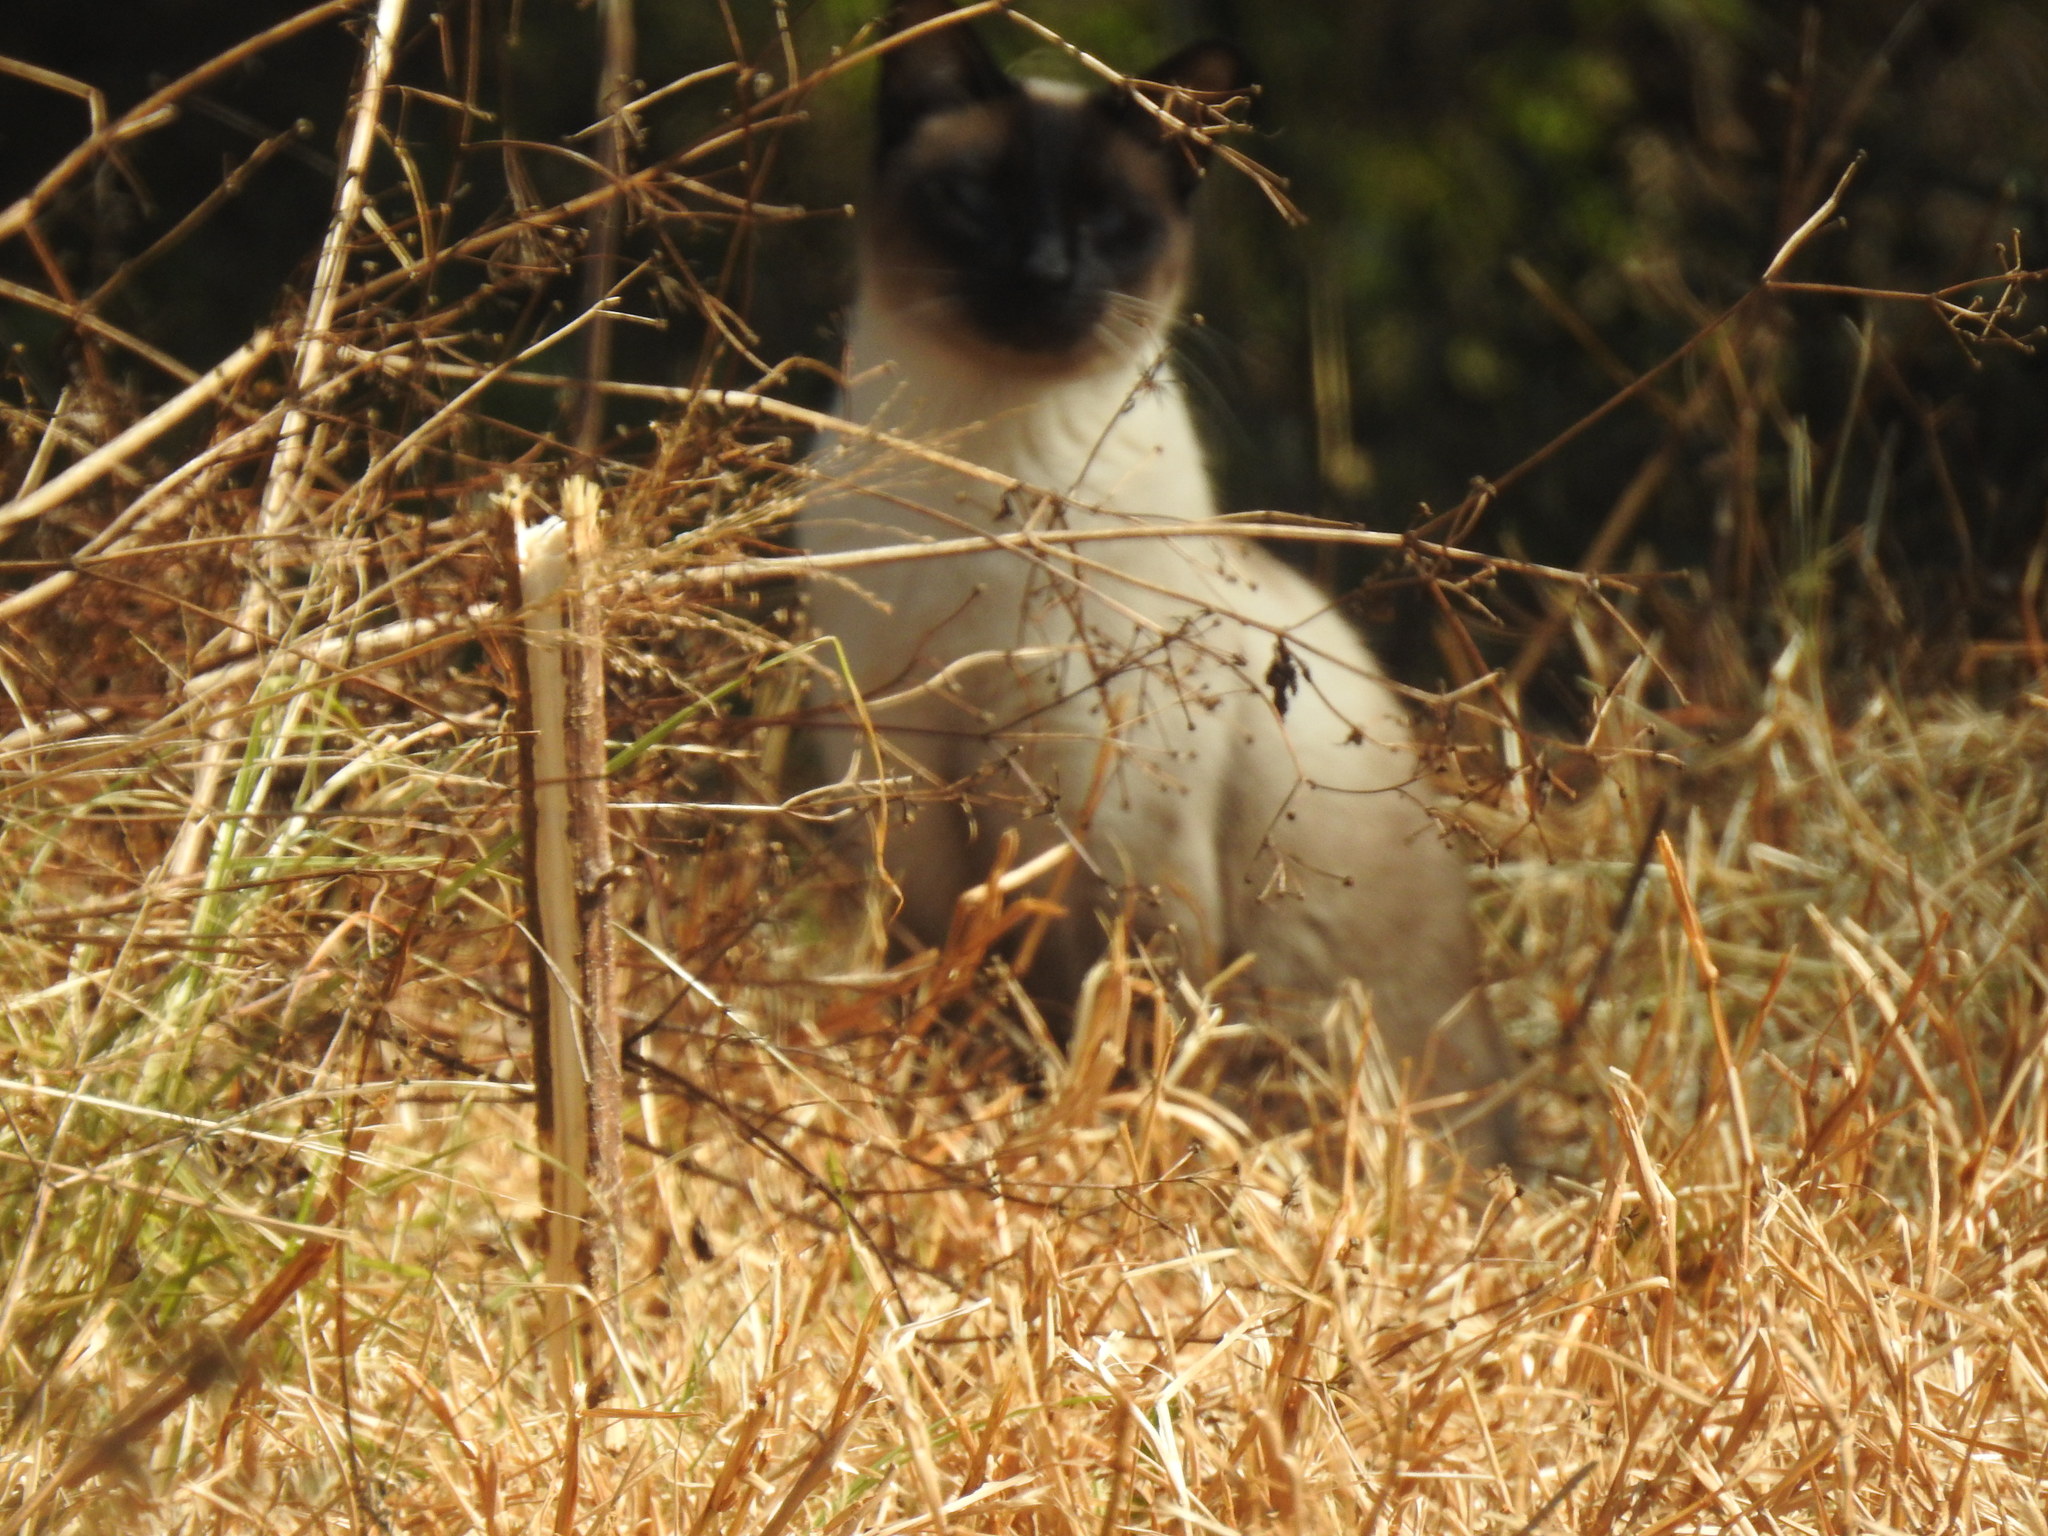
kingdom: Animalia
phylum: Chordata
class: Mammalia
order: Carnivora
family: Felidae
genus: Felis
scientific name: Felis catus
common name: Domestic cat
